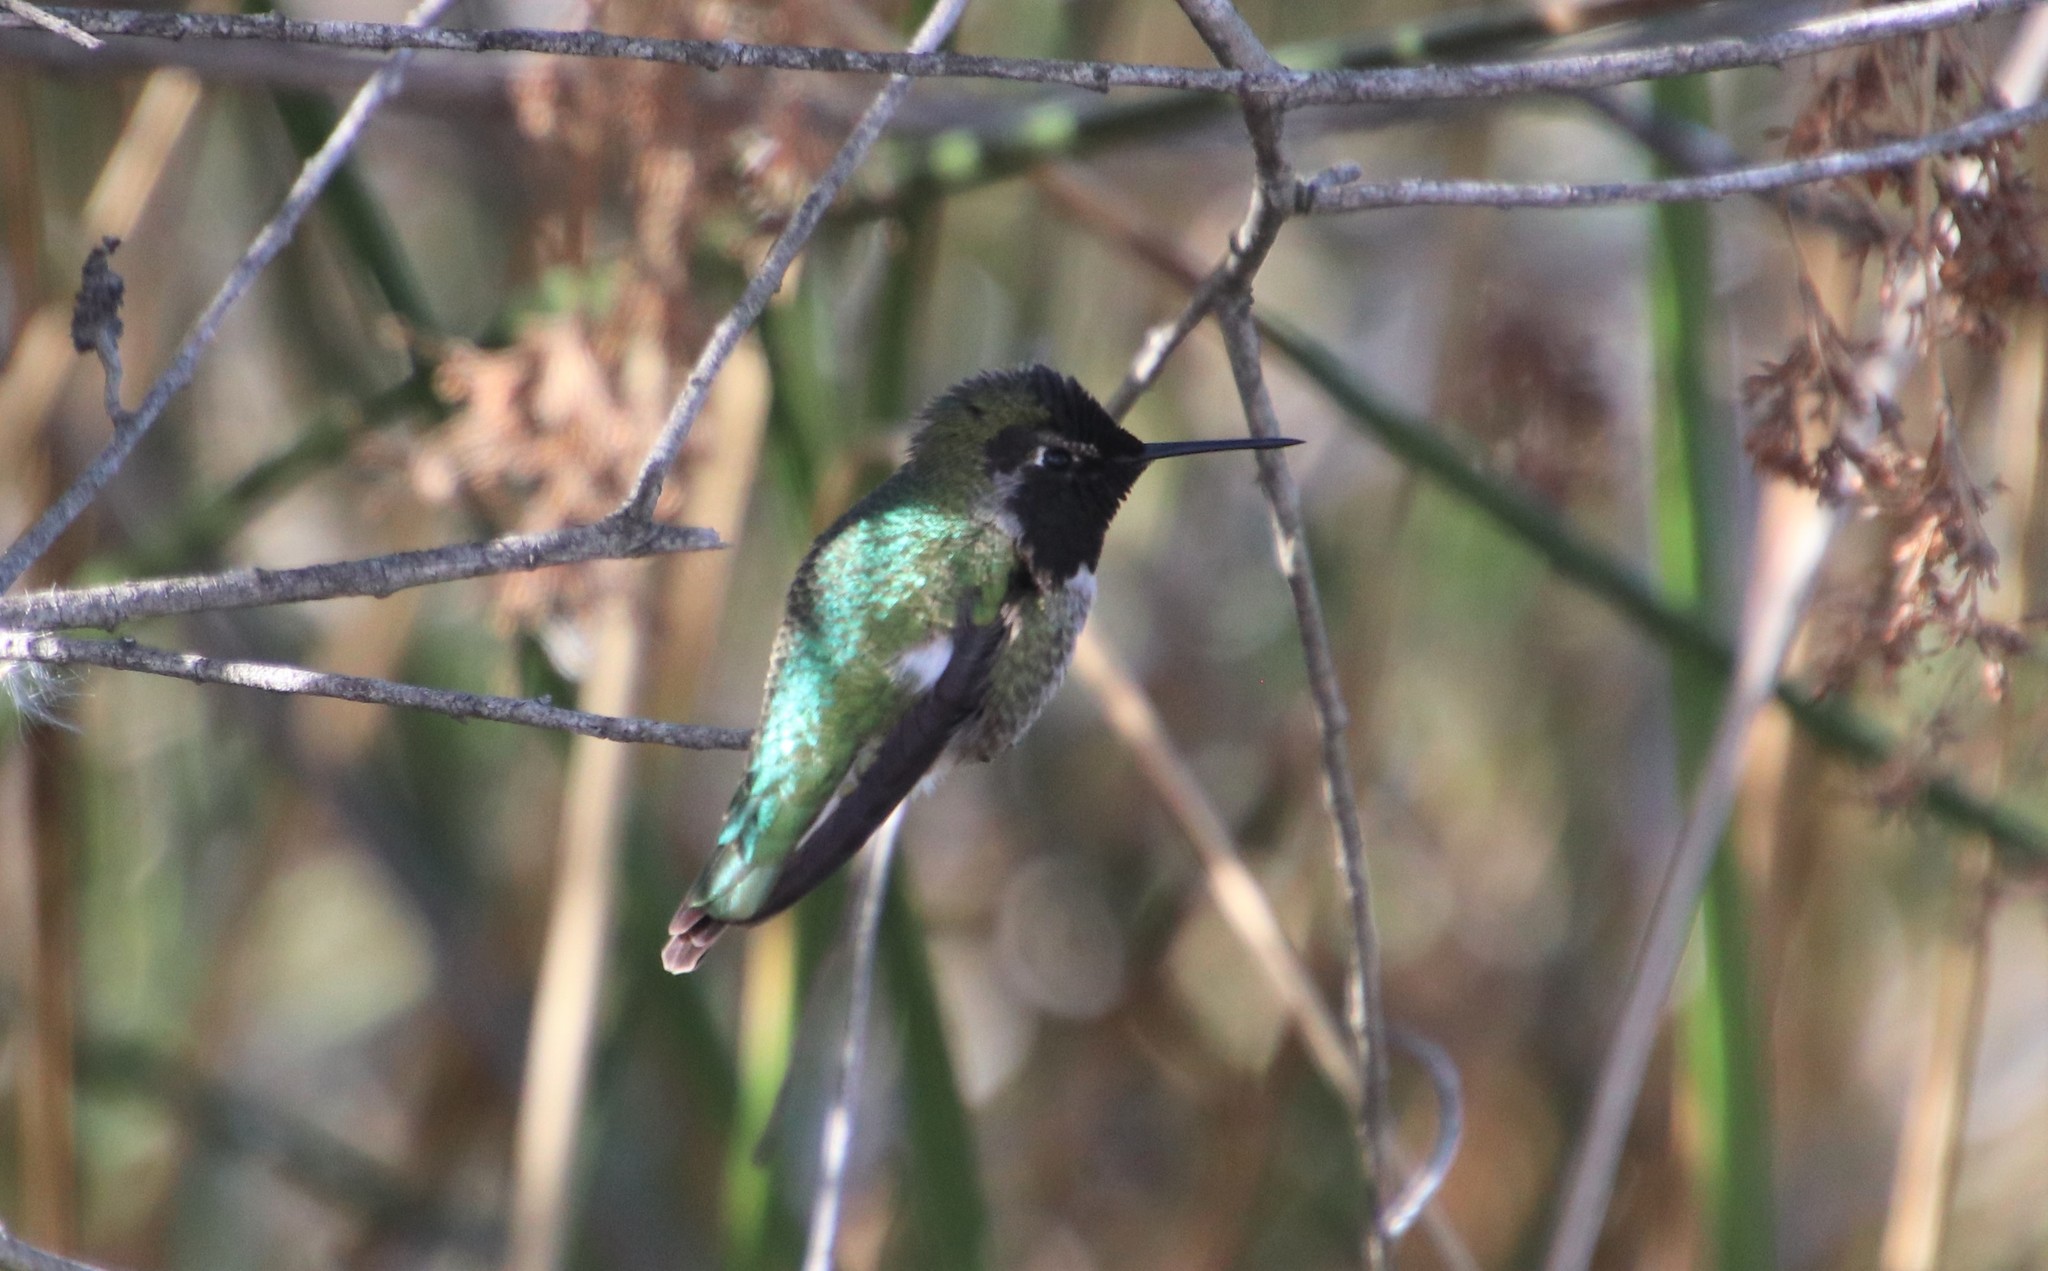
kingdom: Animalia
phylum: Chordata
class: Aves
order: Apodiformes
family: Trochilidae
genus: Calypte
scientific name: Calypte anna
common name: Anna's hummingbird
